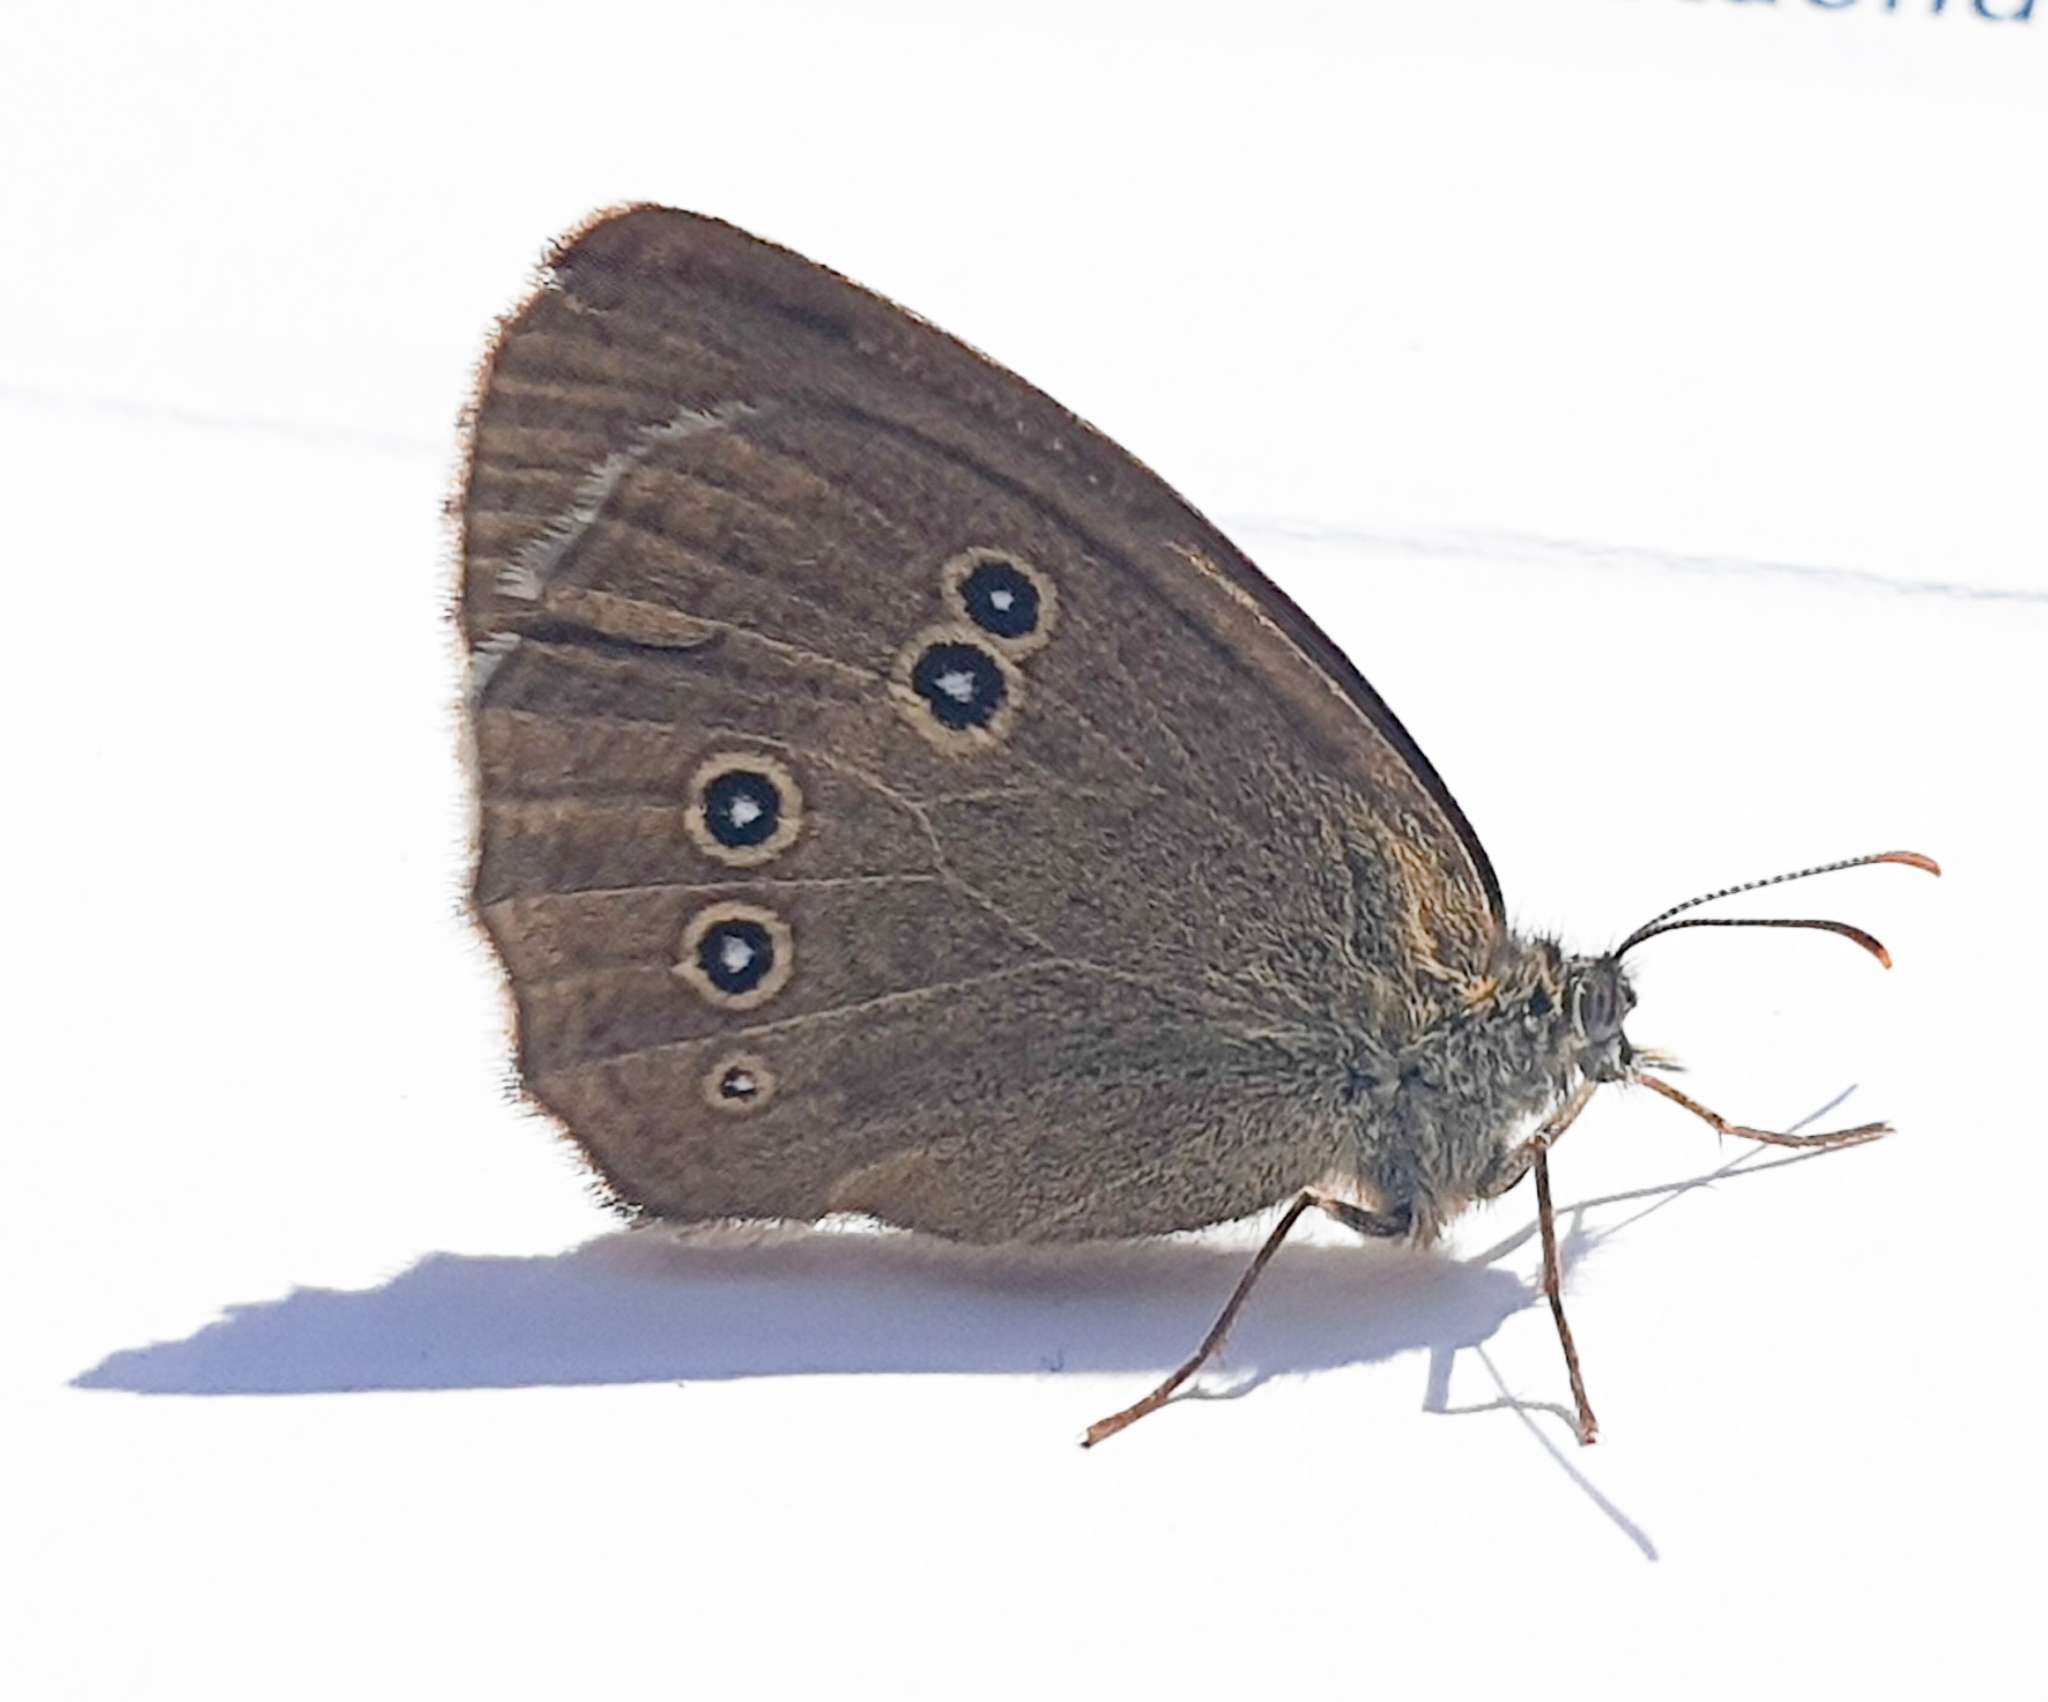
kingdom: Animalia
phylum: Arthropoda
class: Insecta
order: Lepidoptera
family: Nymphalidae
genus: Aphantopus
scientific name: Aphantopus hyperantus
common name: Ringlet
